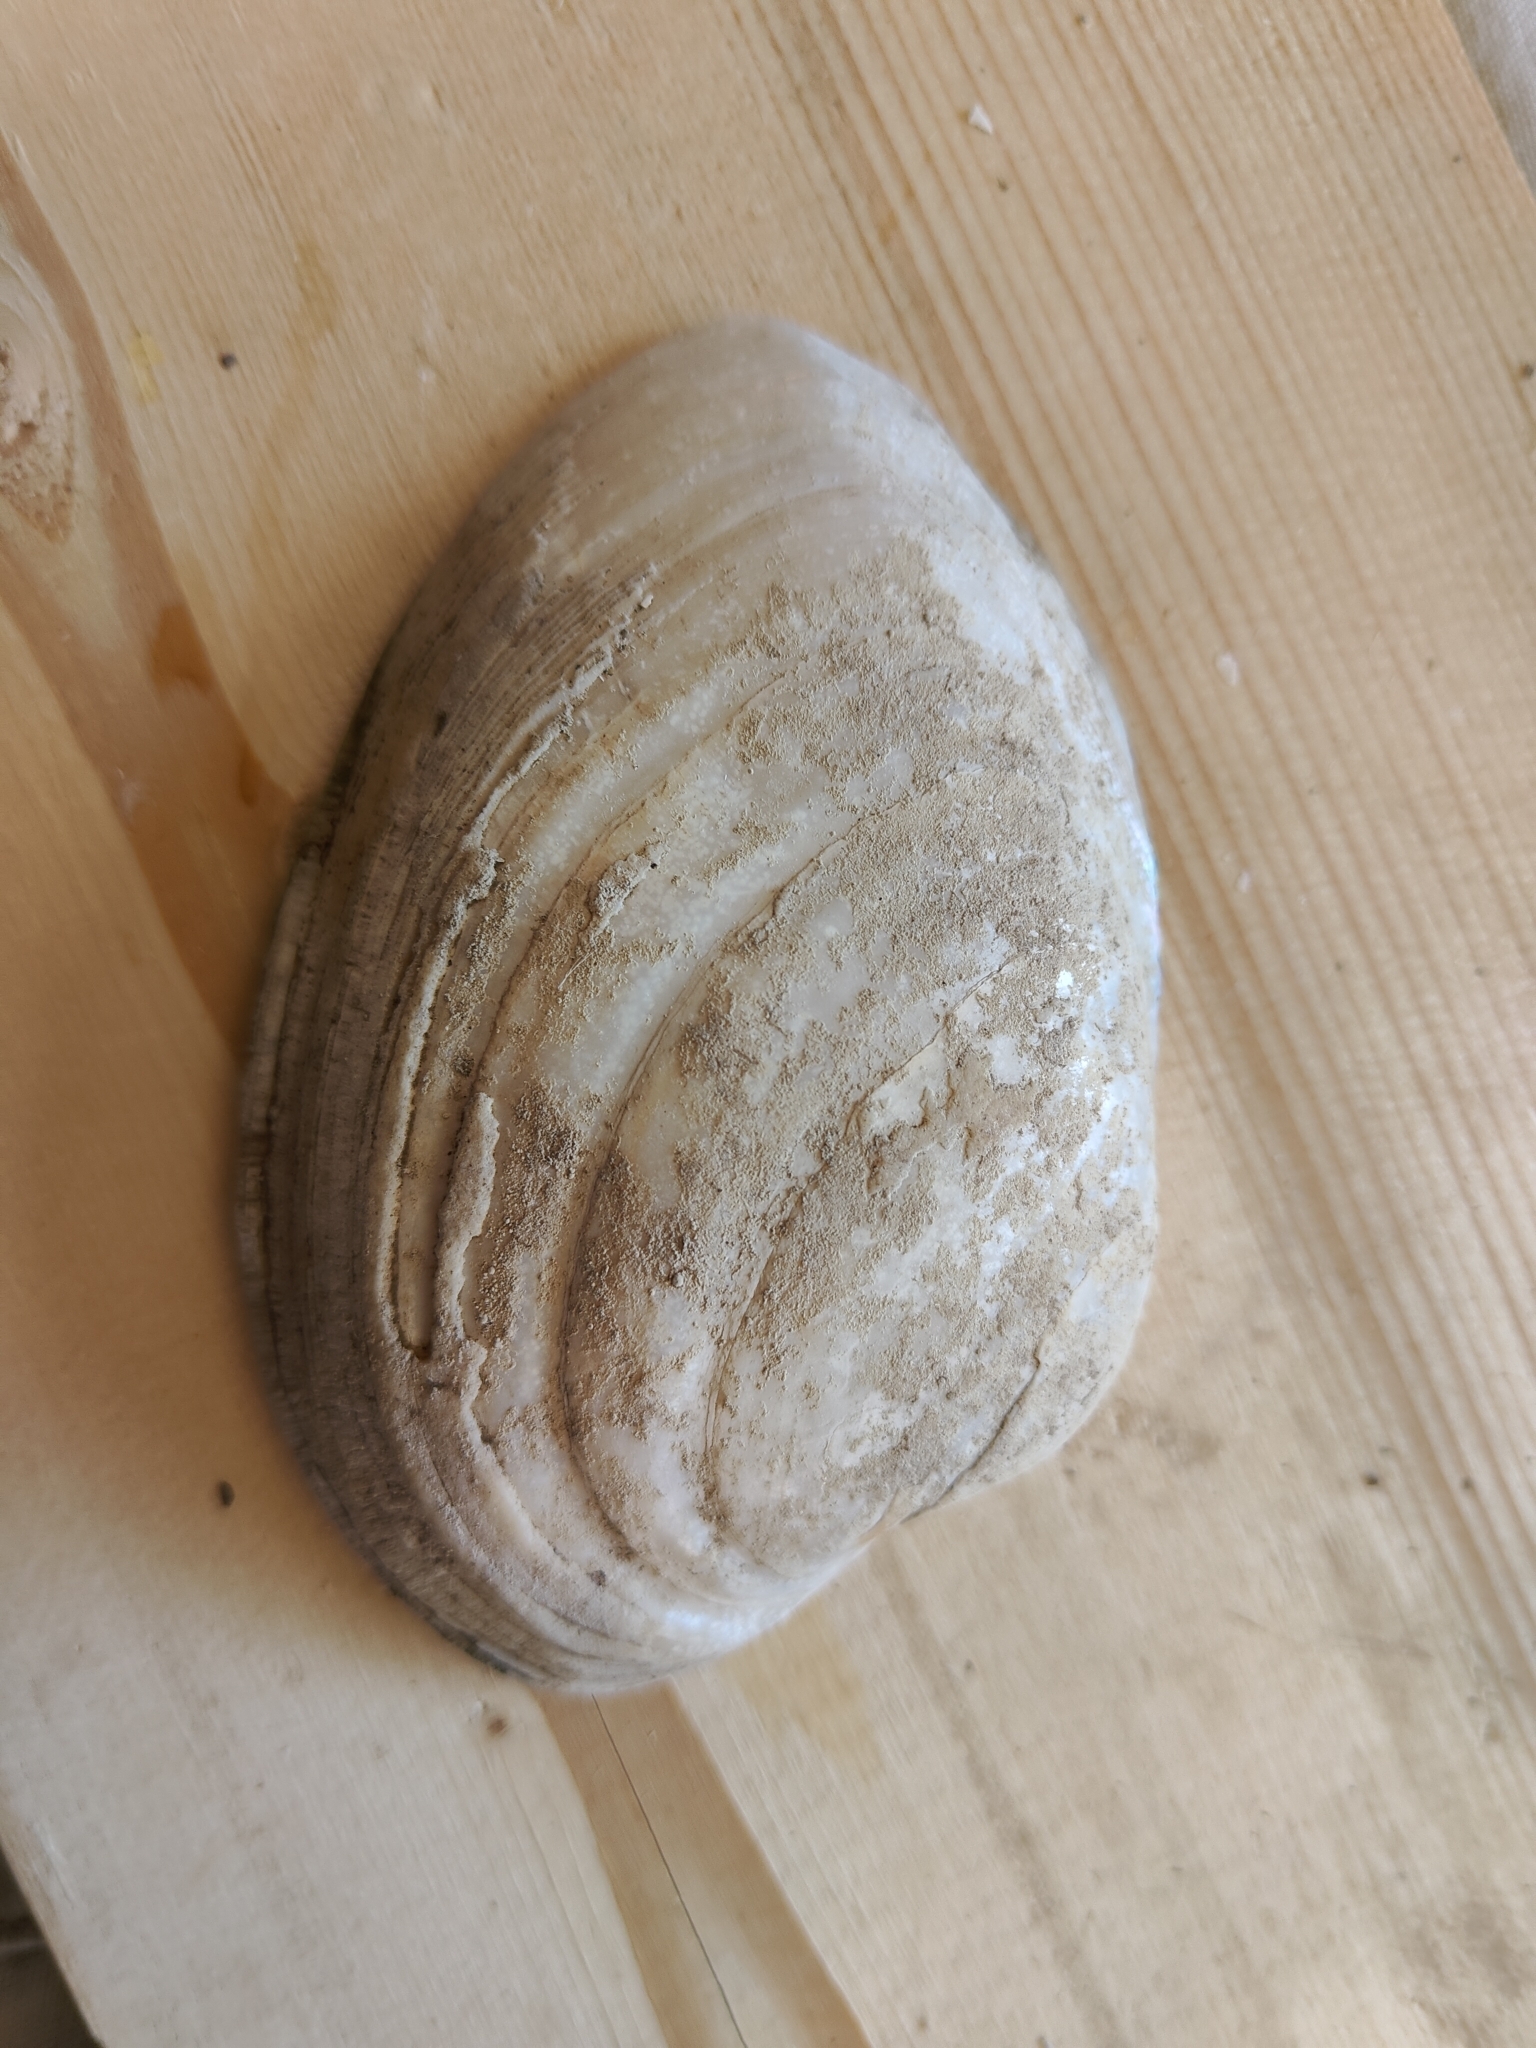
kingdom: Animalia
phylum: Mollusca
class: Bivalvia
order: Unionida
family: Unionidae
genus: Lampsilis
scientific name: Lampsilis cardium
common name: Plain pocketbook
